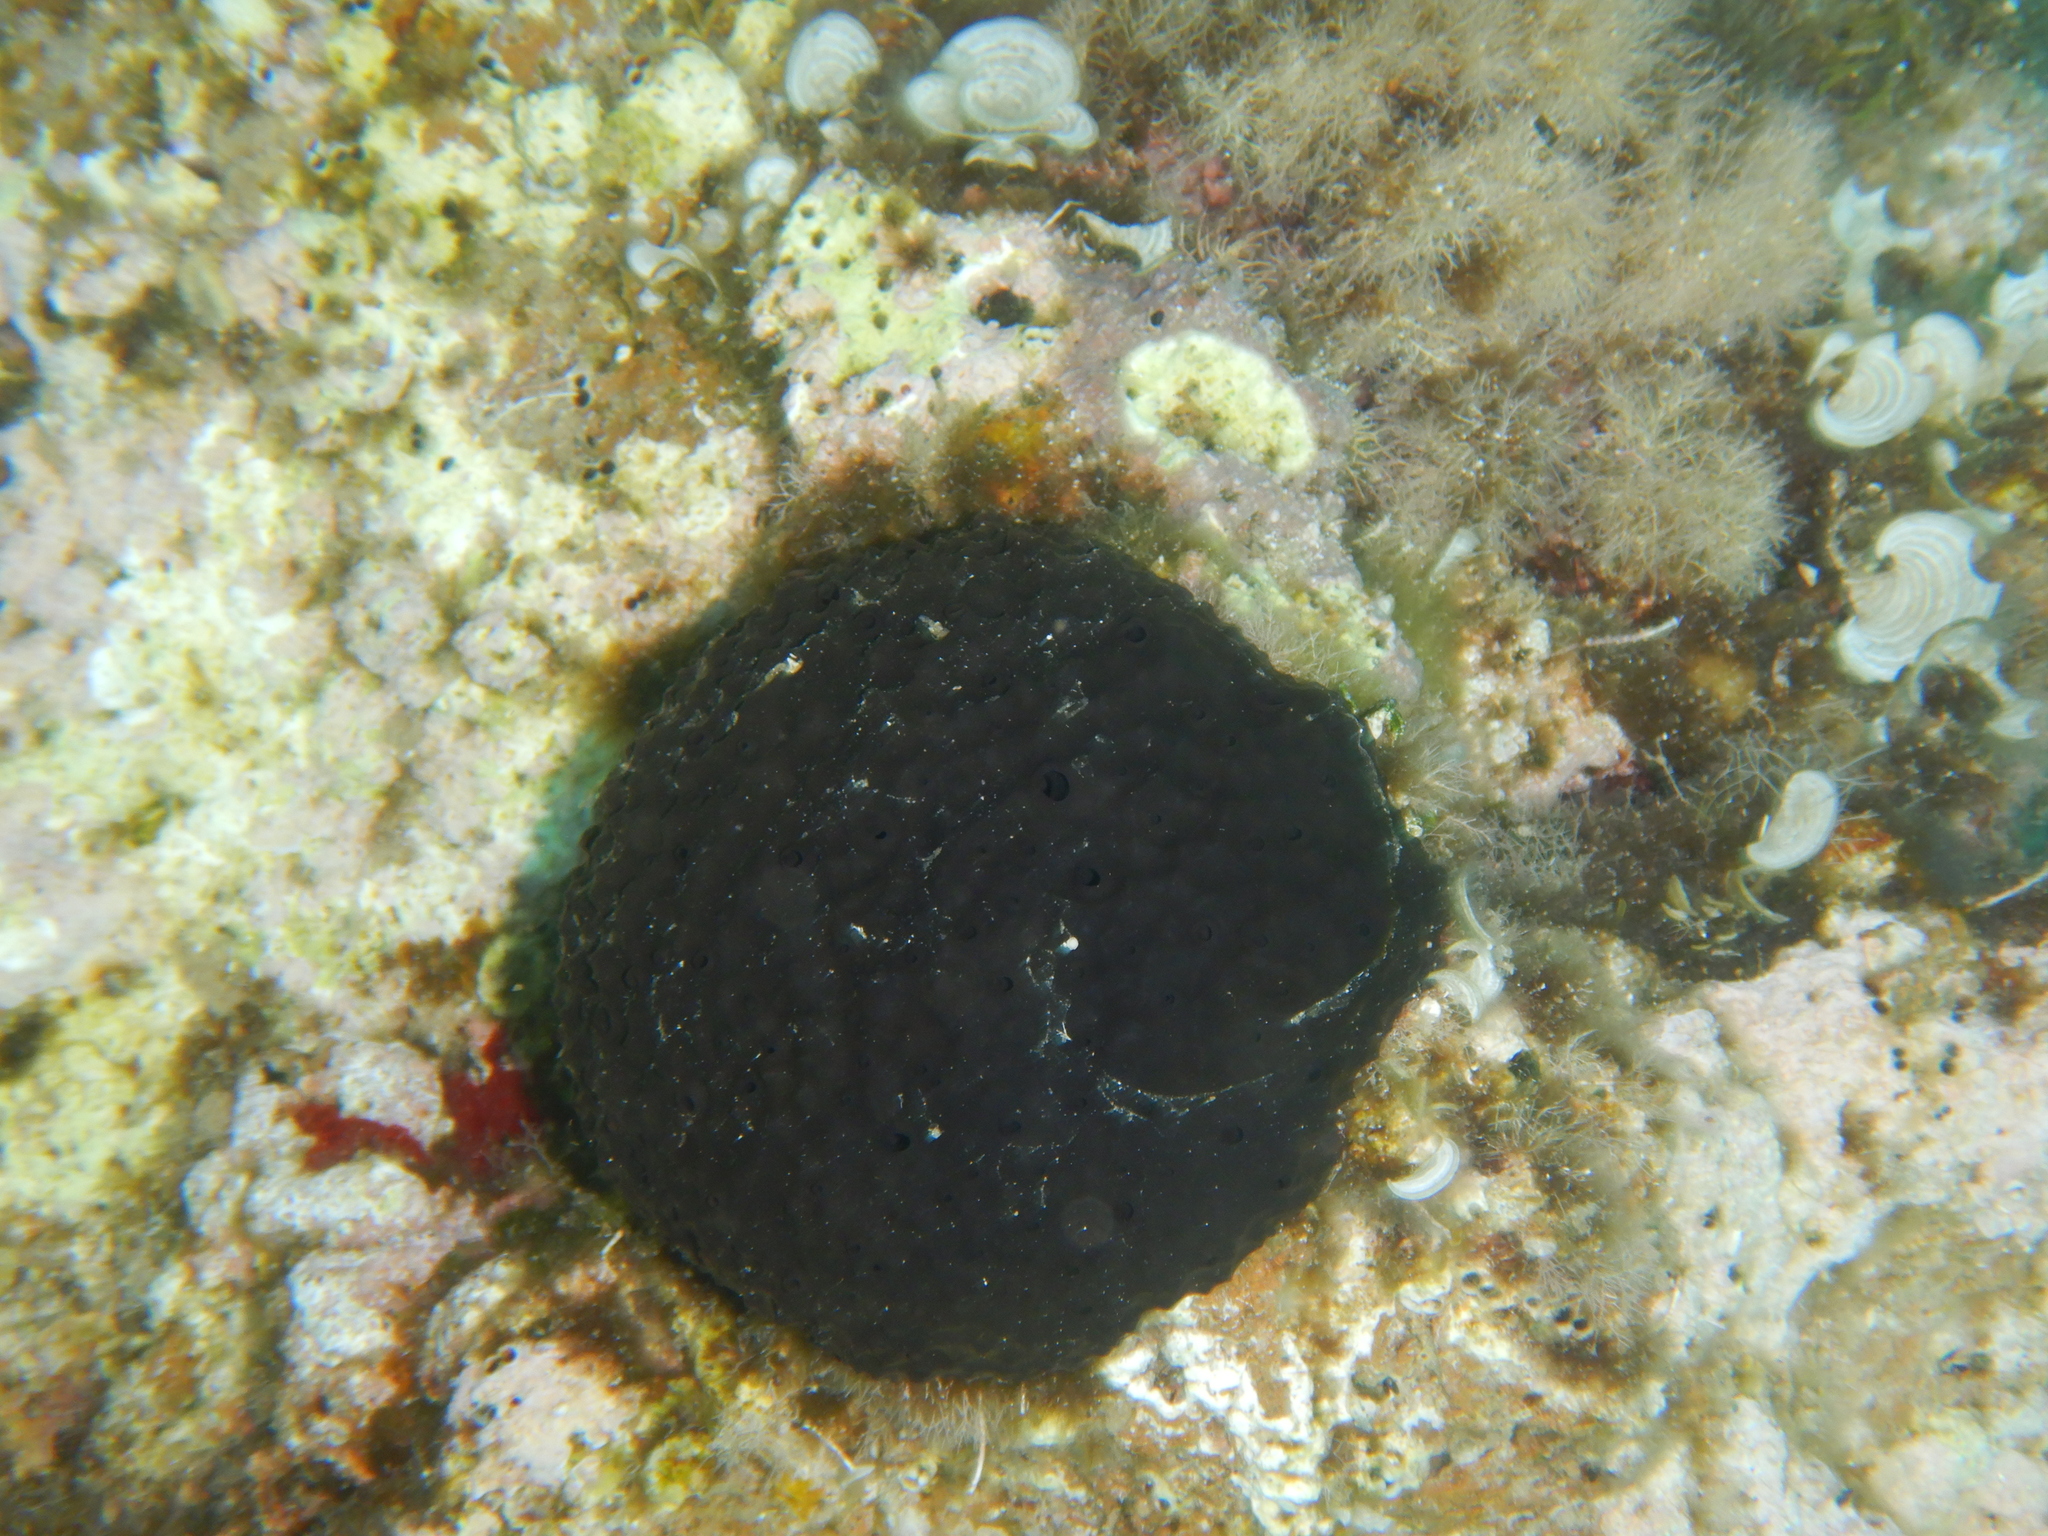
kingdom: Animalia
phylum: Porifera
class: Demospongiae
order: Dictyoceratida
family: Irciniidae
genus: Sarcotragus
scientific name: Sarcotragus spinosulus
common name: Black leather sponge
